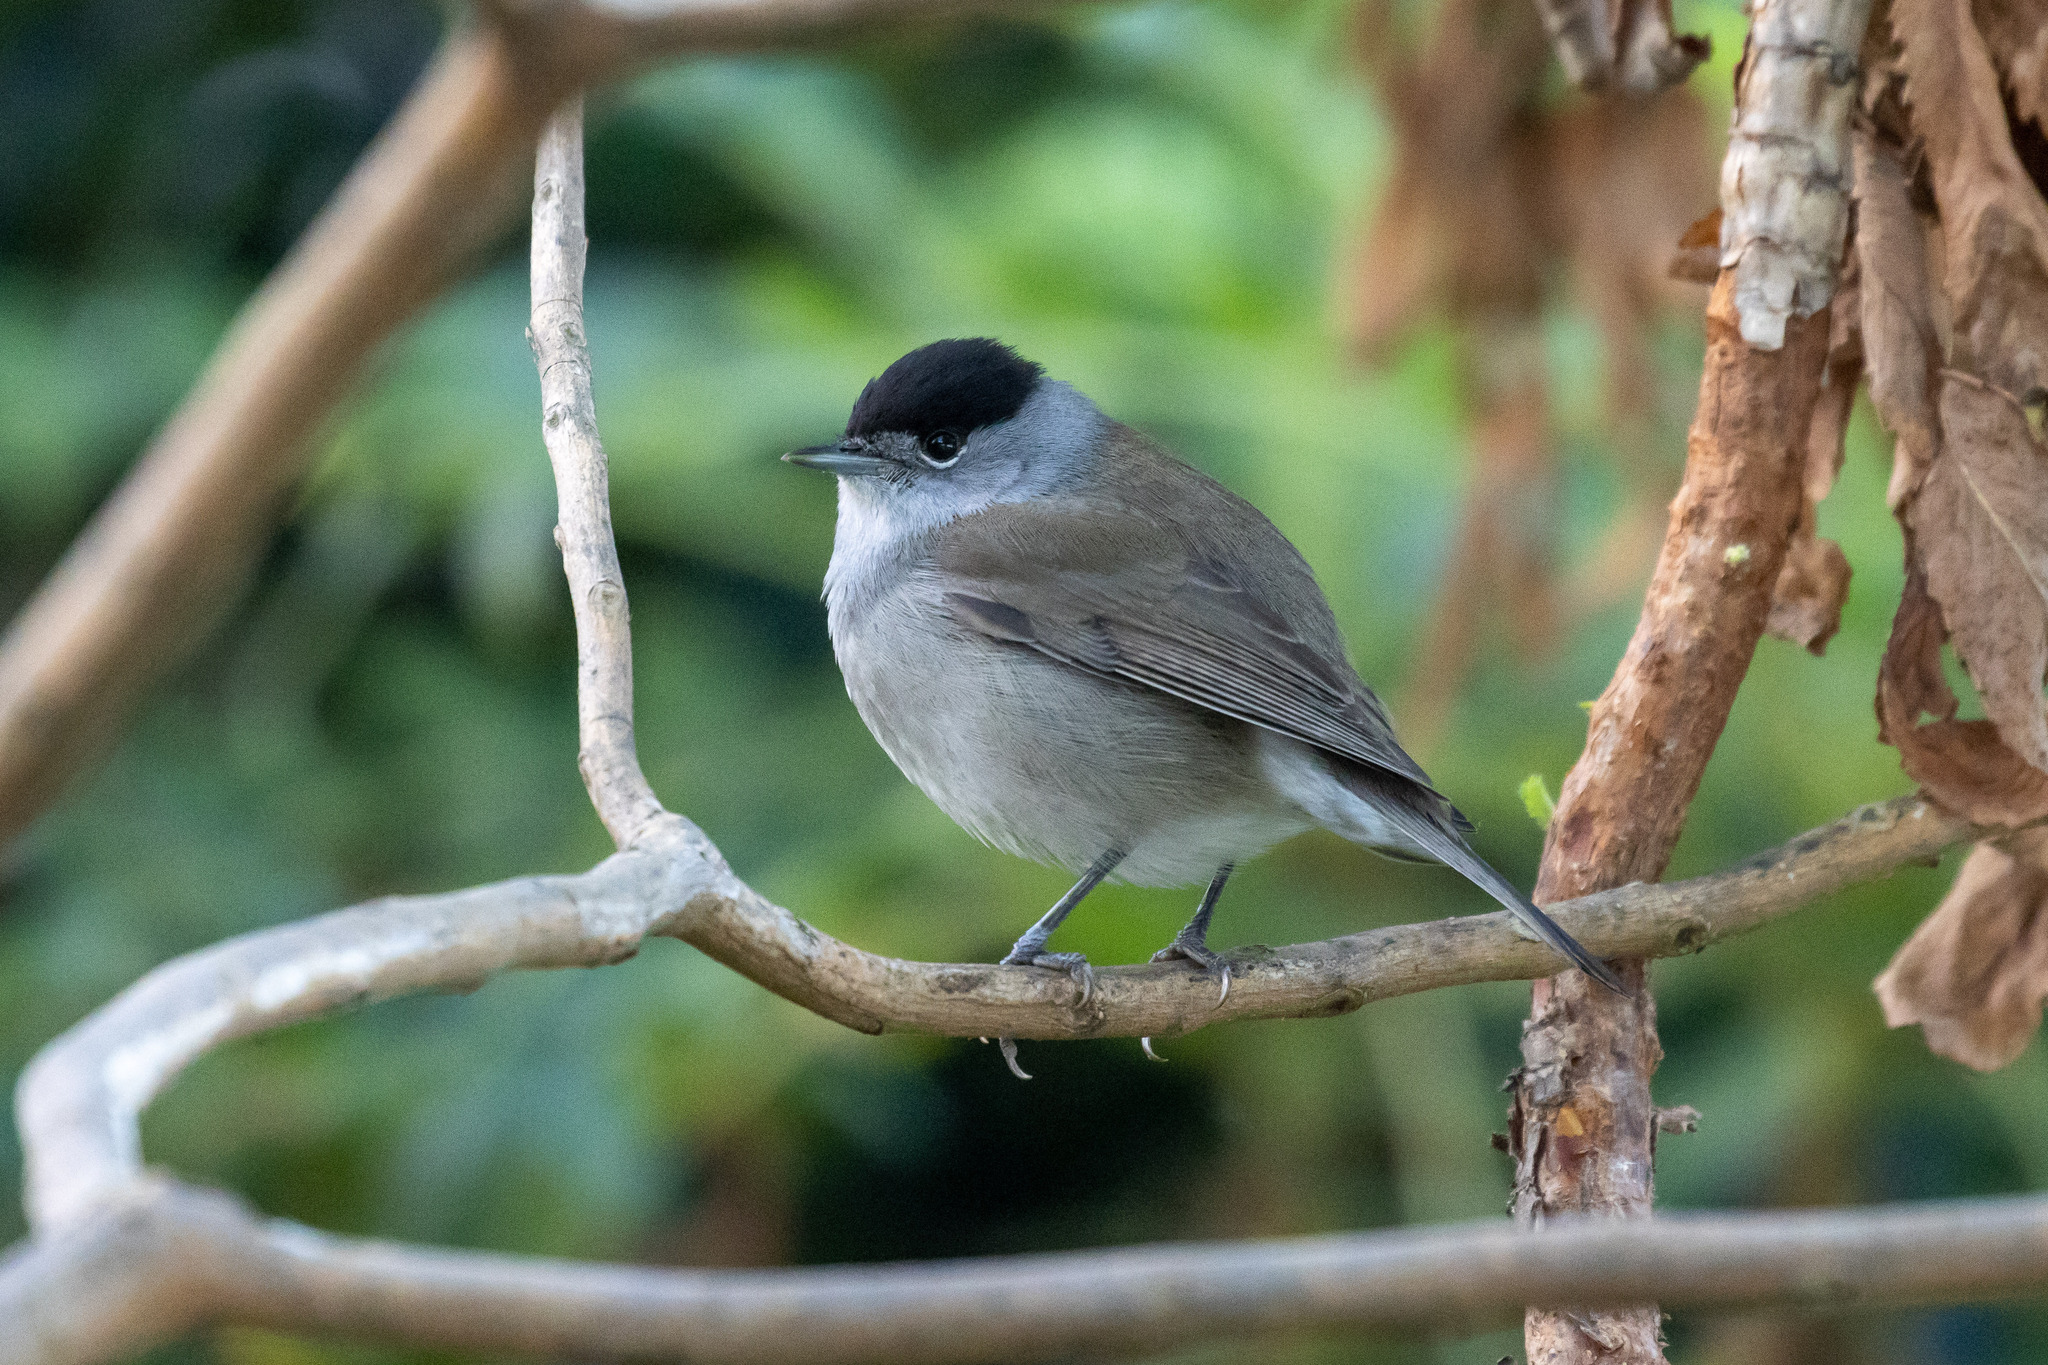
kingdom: Animalia
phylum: Chordata
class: Aves
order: Passeriformes
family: Sylviidae
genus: Sylvia
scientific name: Sylvia atricapilla
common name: Eurasian blackcap
